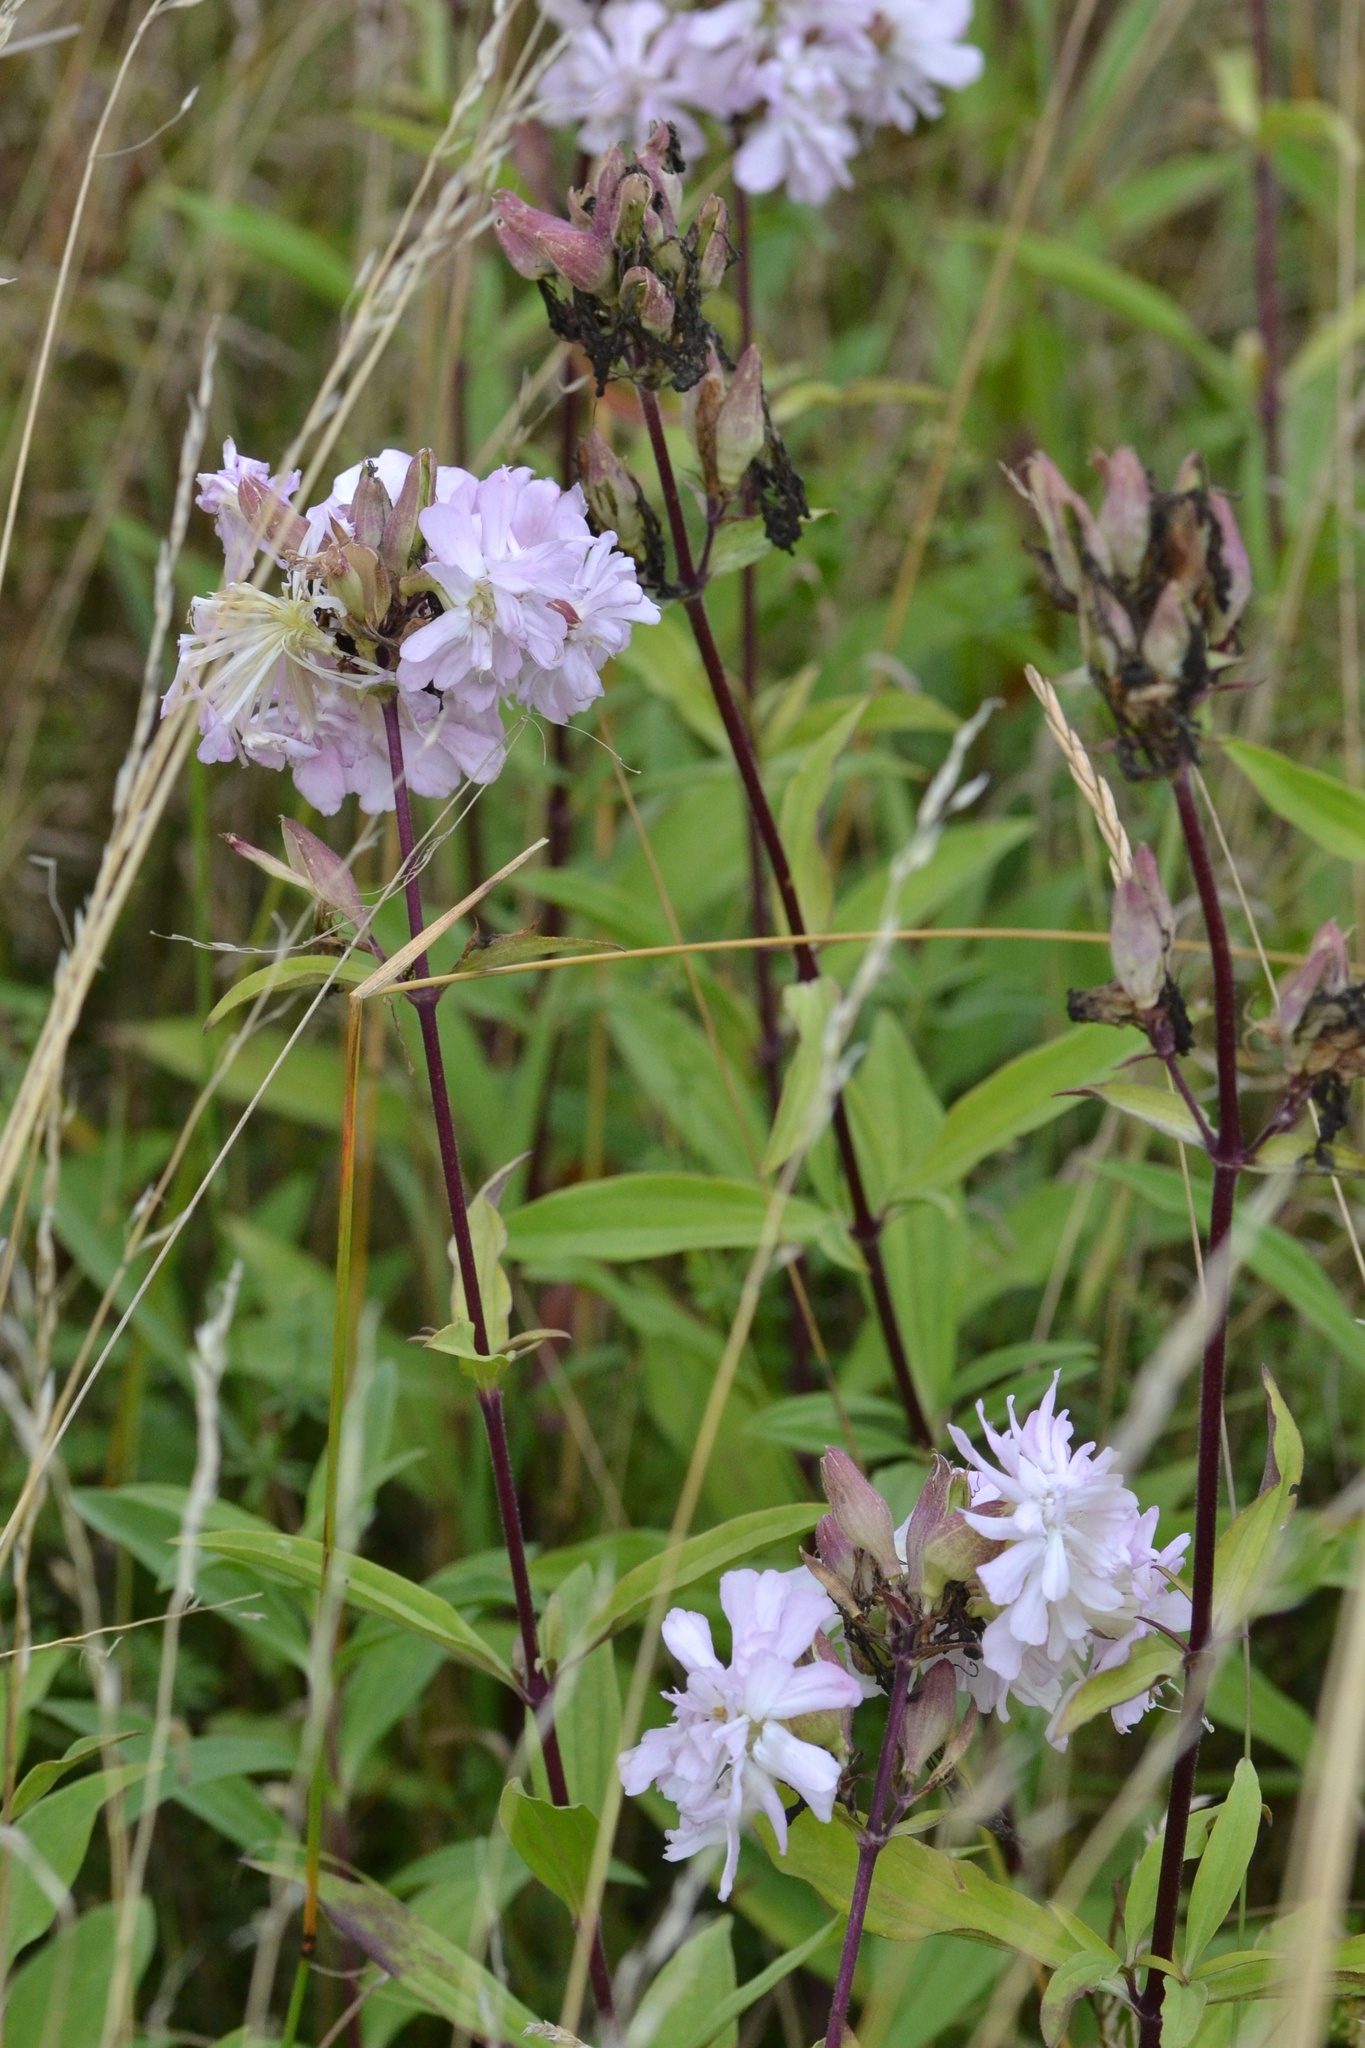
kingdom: Plantae
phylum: Tracheophyta
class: Magnoliopsida
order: Caryophyllales
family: Caryophyllaceae
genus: Saponaria
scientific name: Saponaria officinalis
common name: Soapwort
